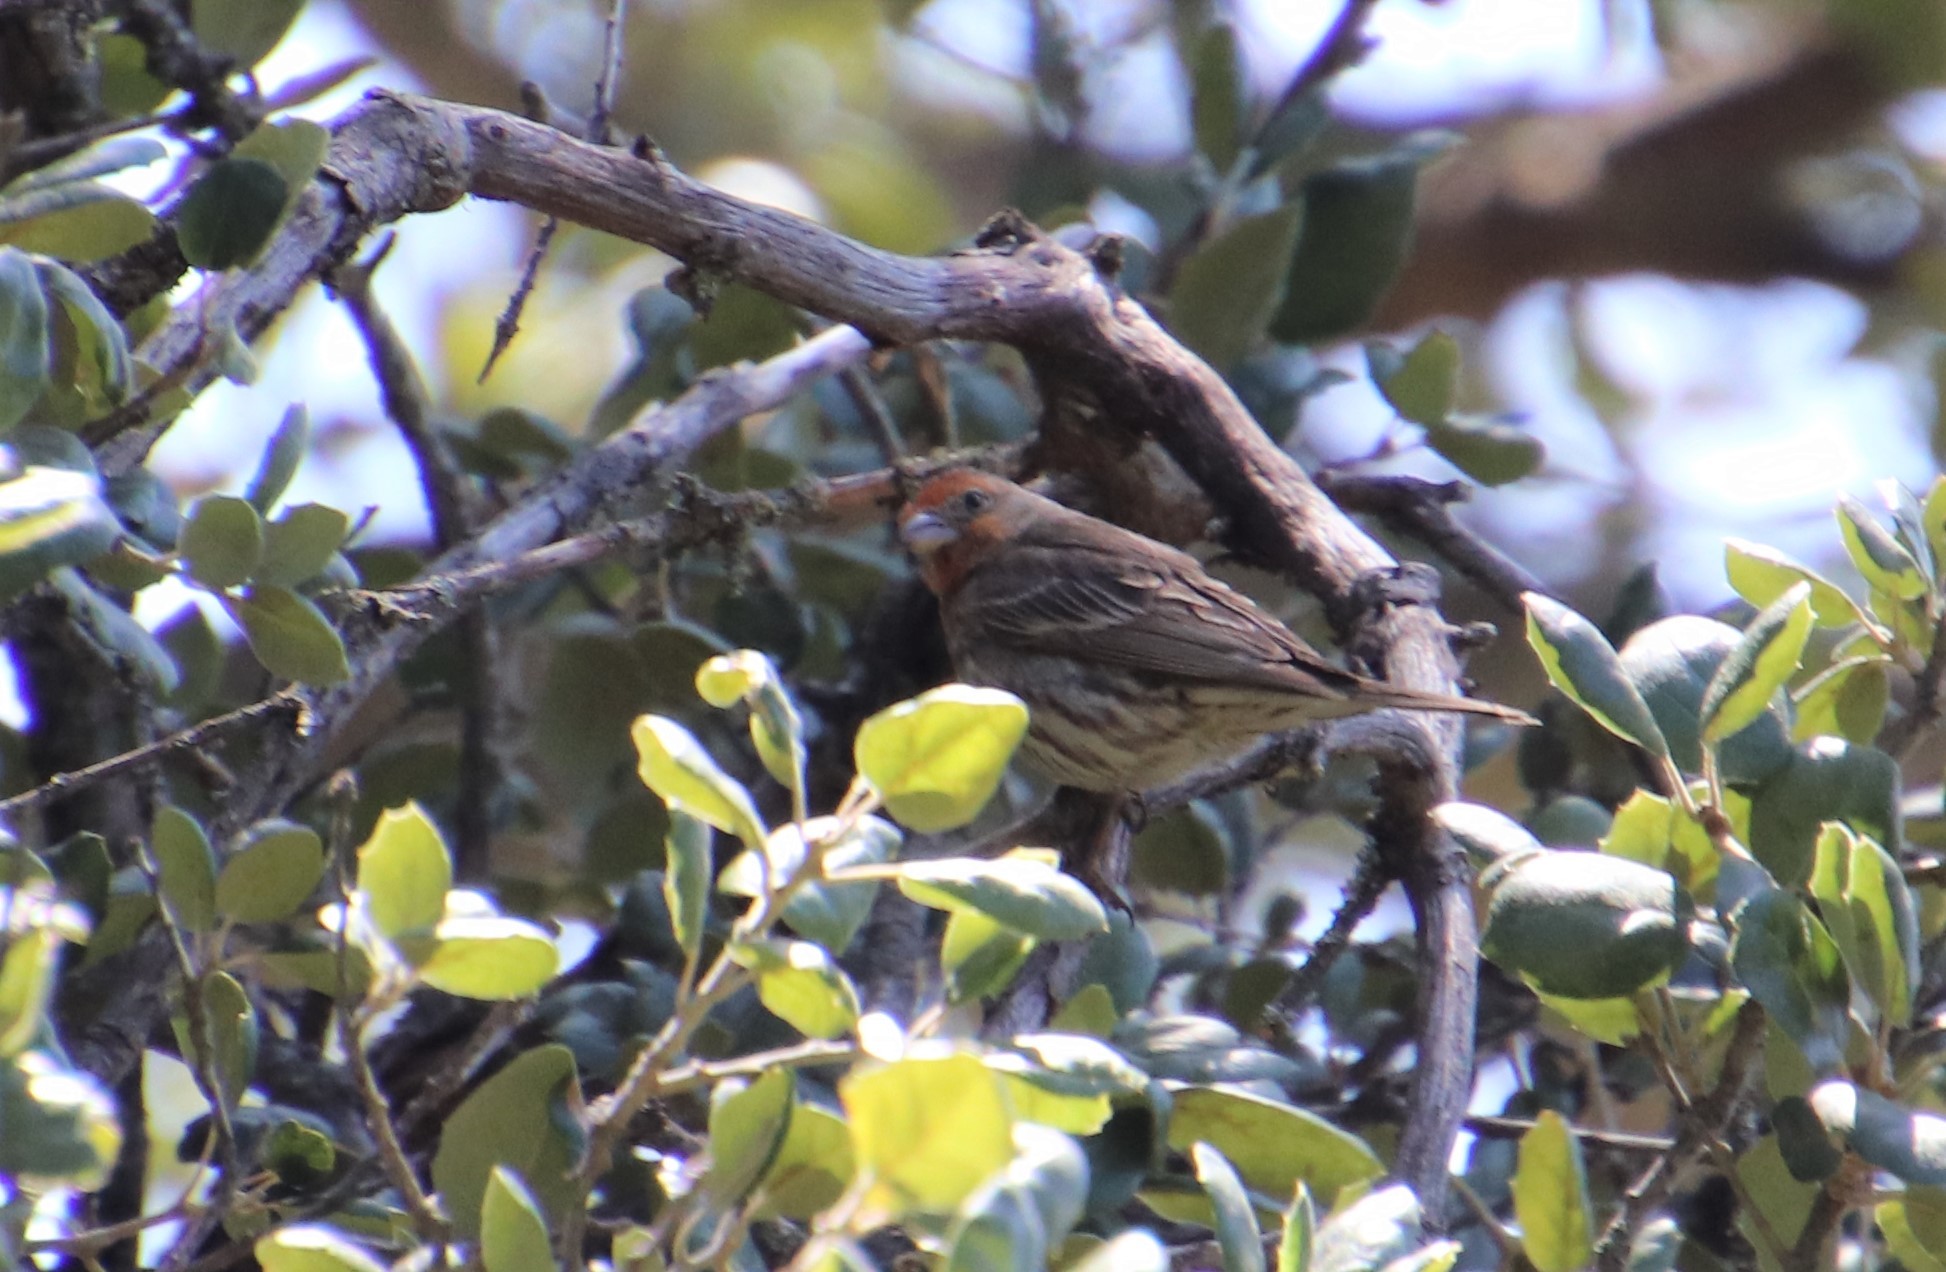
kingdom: Animalia
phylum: Chordata
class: Aves
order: Passeriformes
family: Fringillidae
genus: Haemorhous
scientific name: Haemorhous mexicanus
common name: House finch
